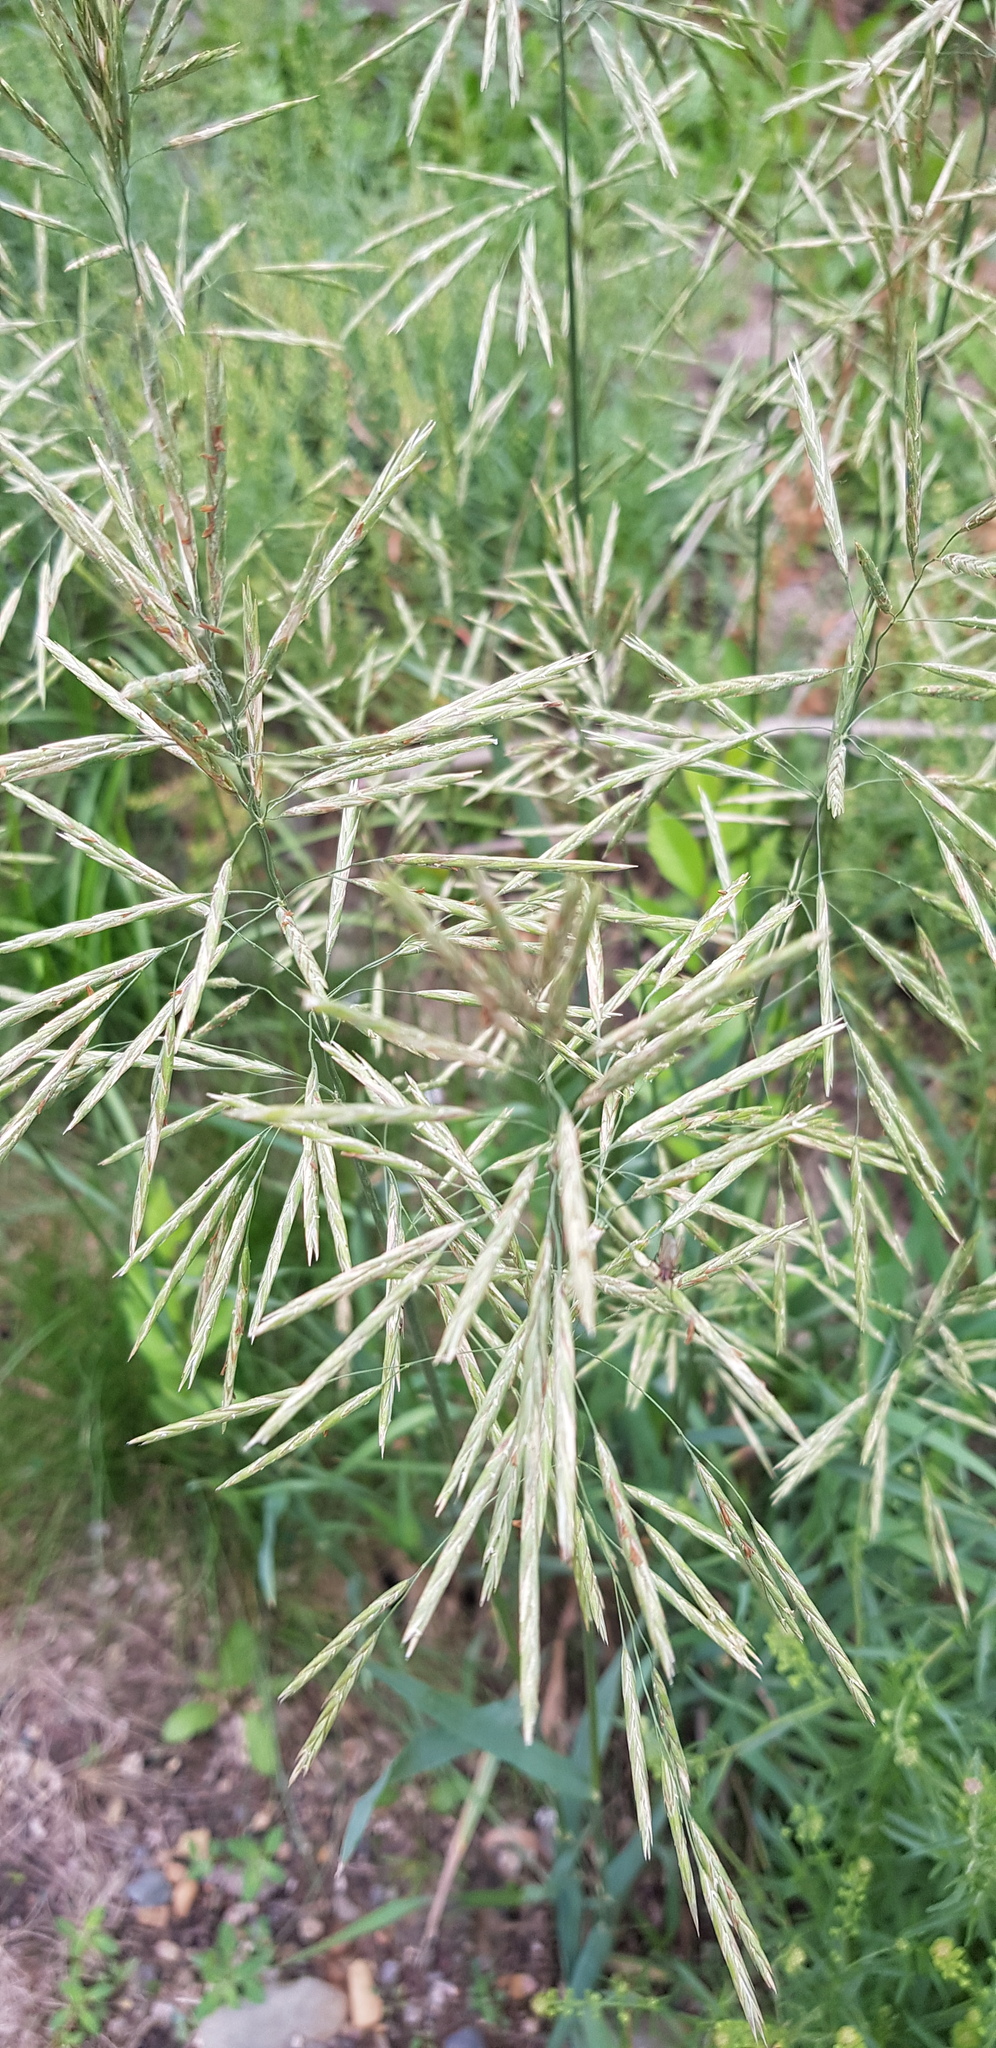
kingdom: Plantae
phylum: Tracheophyta
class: Liliopsida
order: Poales
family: Poaceae
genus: Bromus
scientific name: Bromus inermis
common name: Smooth brome
